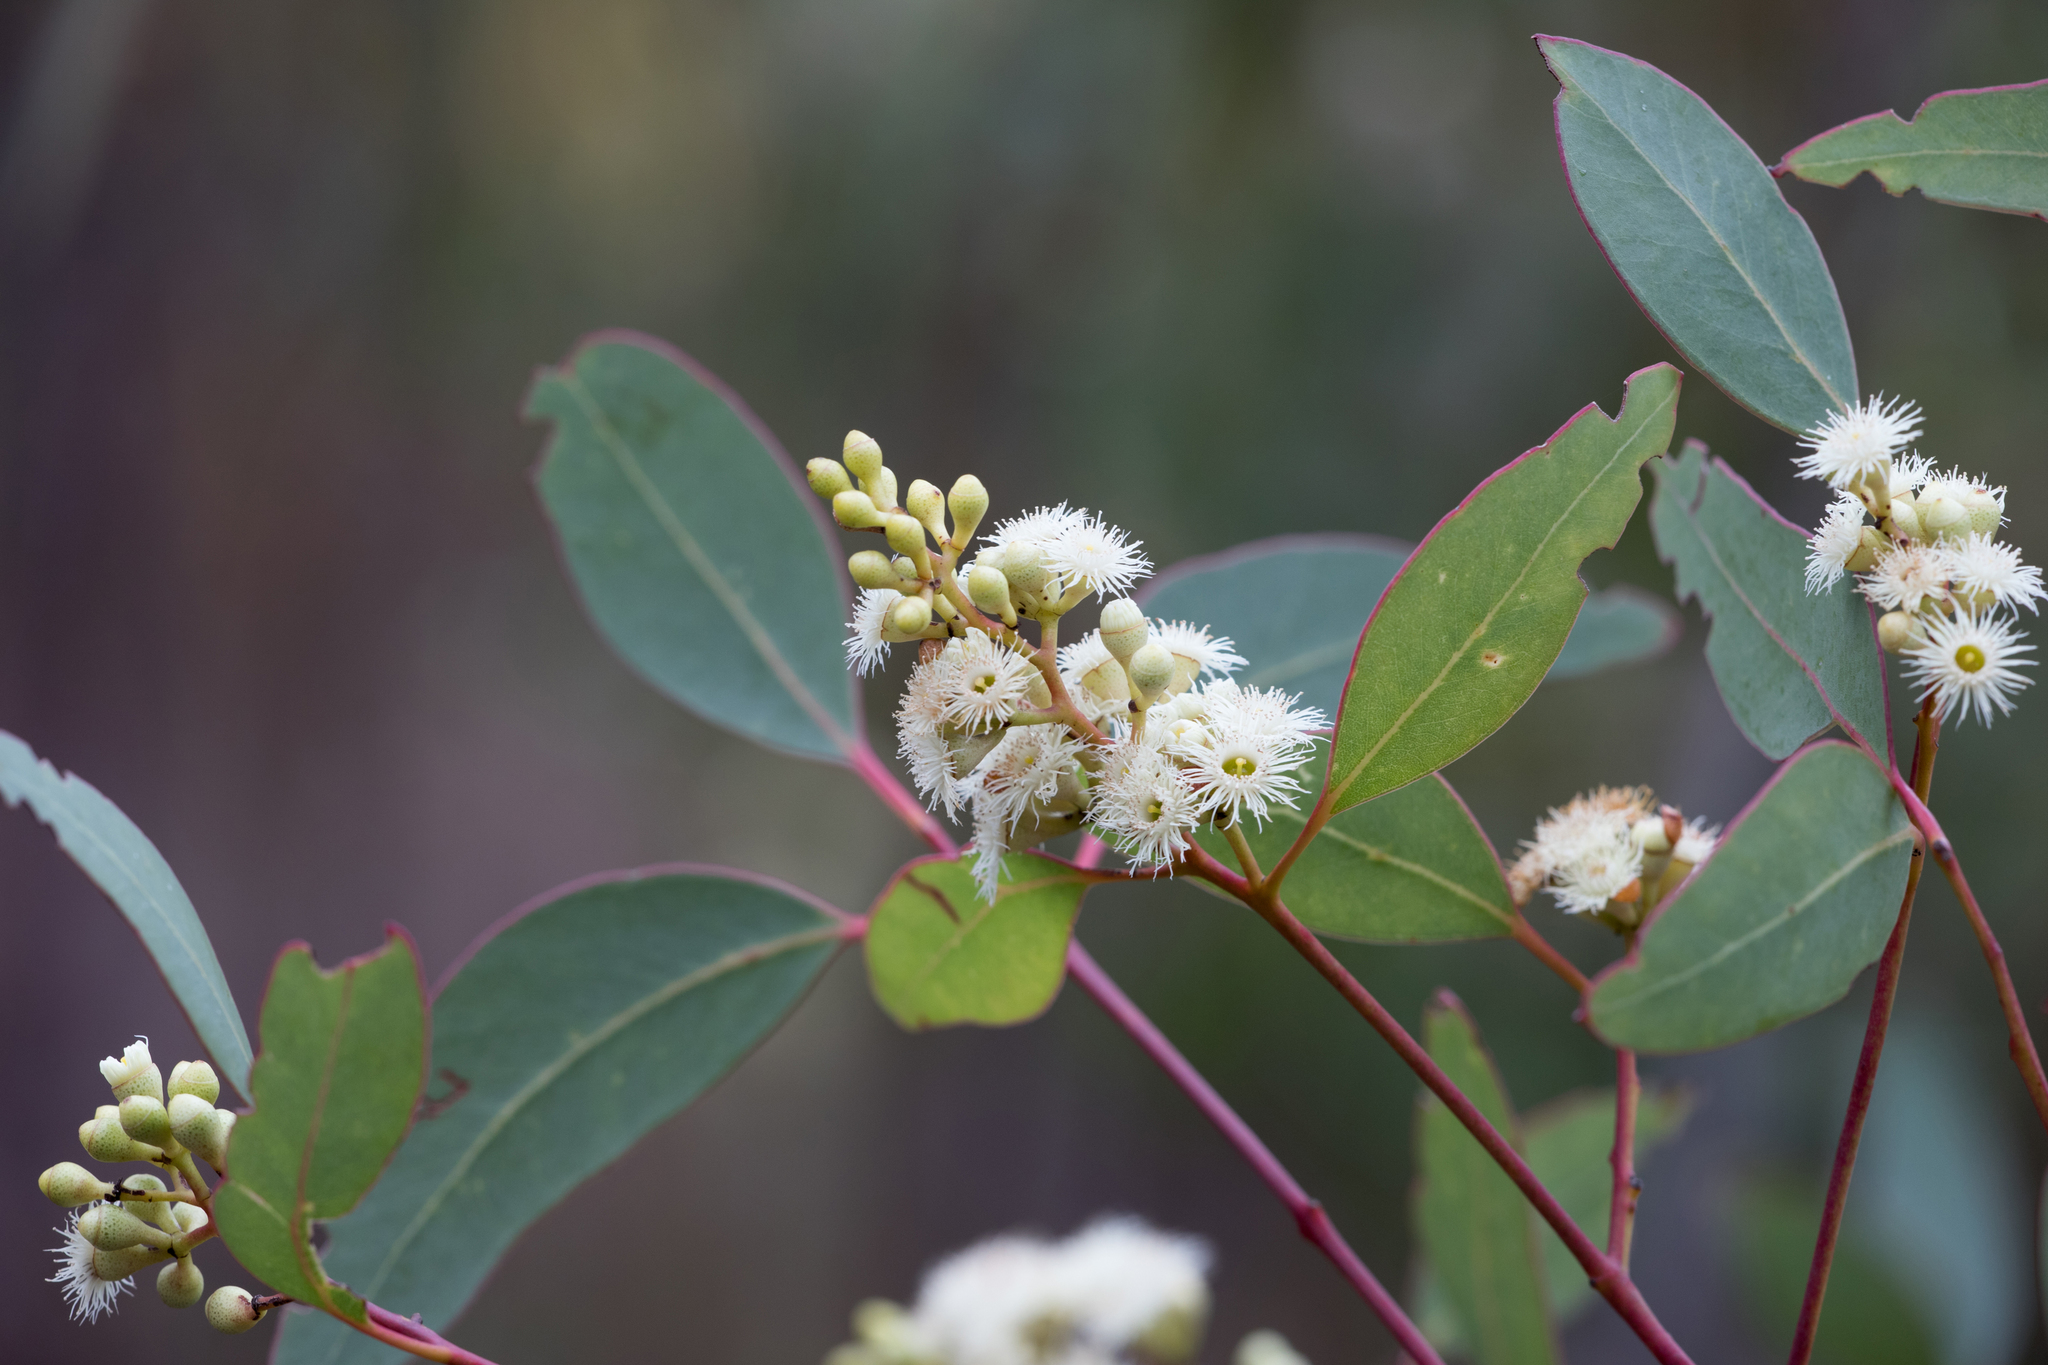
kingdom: Plantae
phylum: Tracheophyta
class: Magnoliopsida
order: Myrtales
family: Myrtaceae
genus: Eucalyptus
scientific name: Eucalyptus fasciculosa
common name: Hill gum
